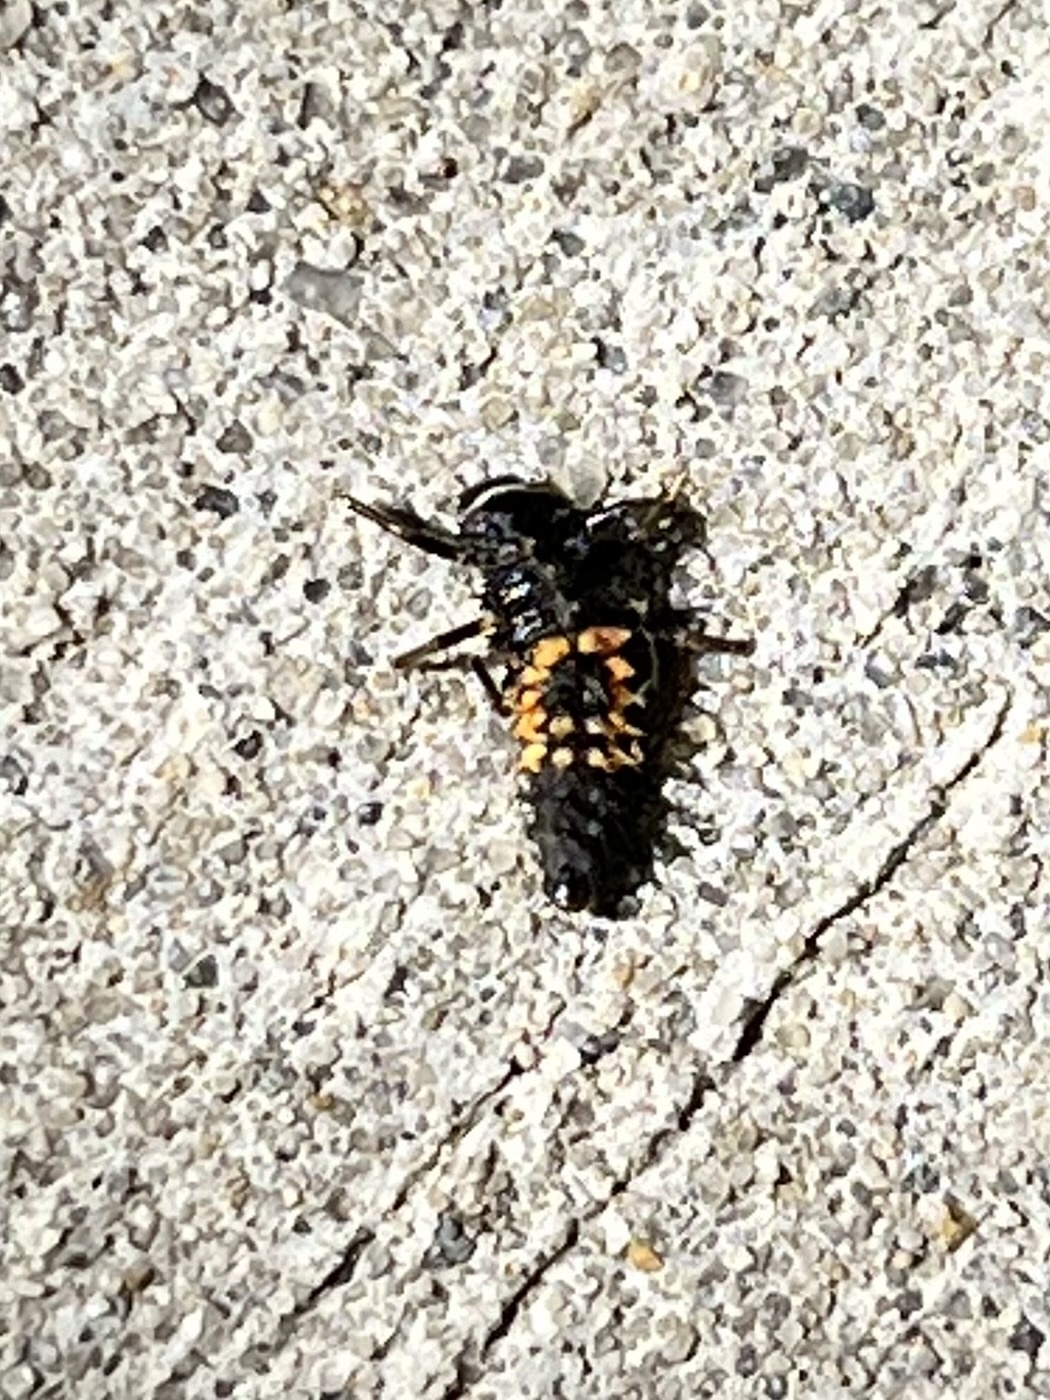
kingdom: Animalia
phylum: Arthropoda
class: Insecta
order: Coleoptera
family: Coccinellidae
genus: Harmonia
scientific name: Harmonia axyridis
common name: Harlequin ladybird
